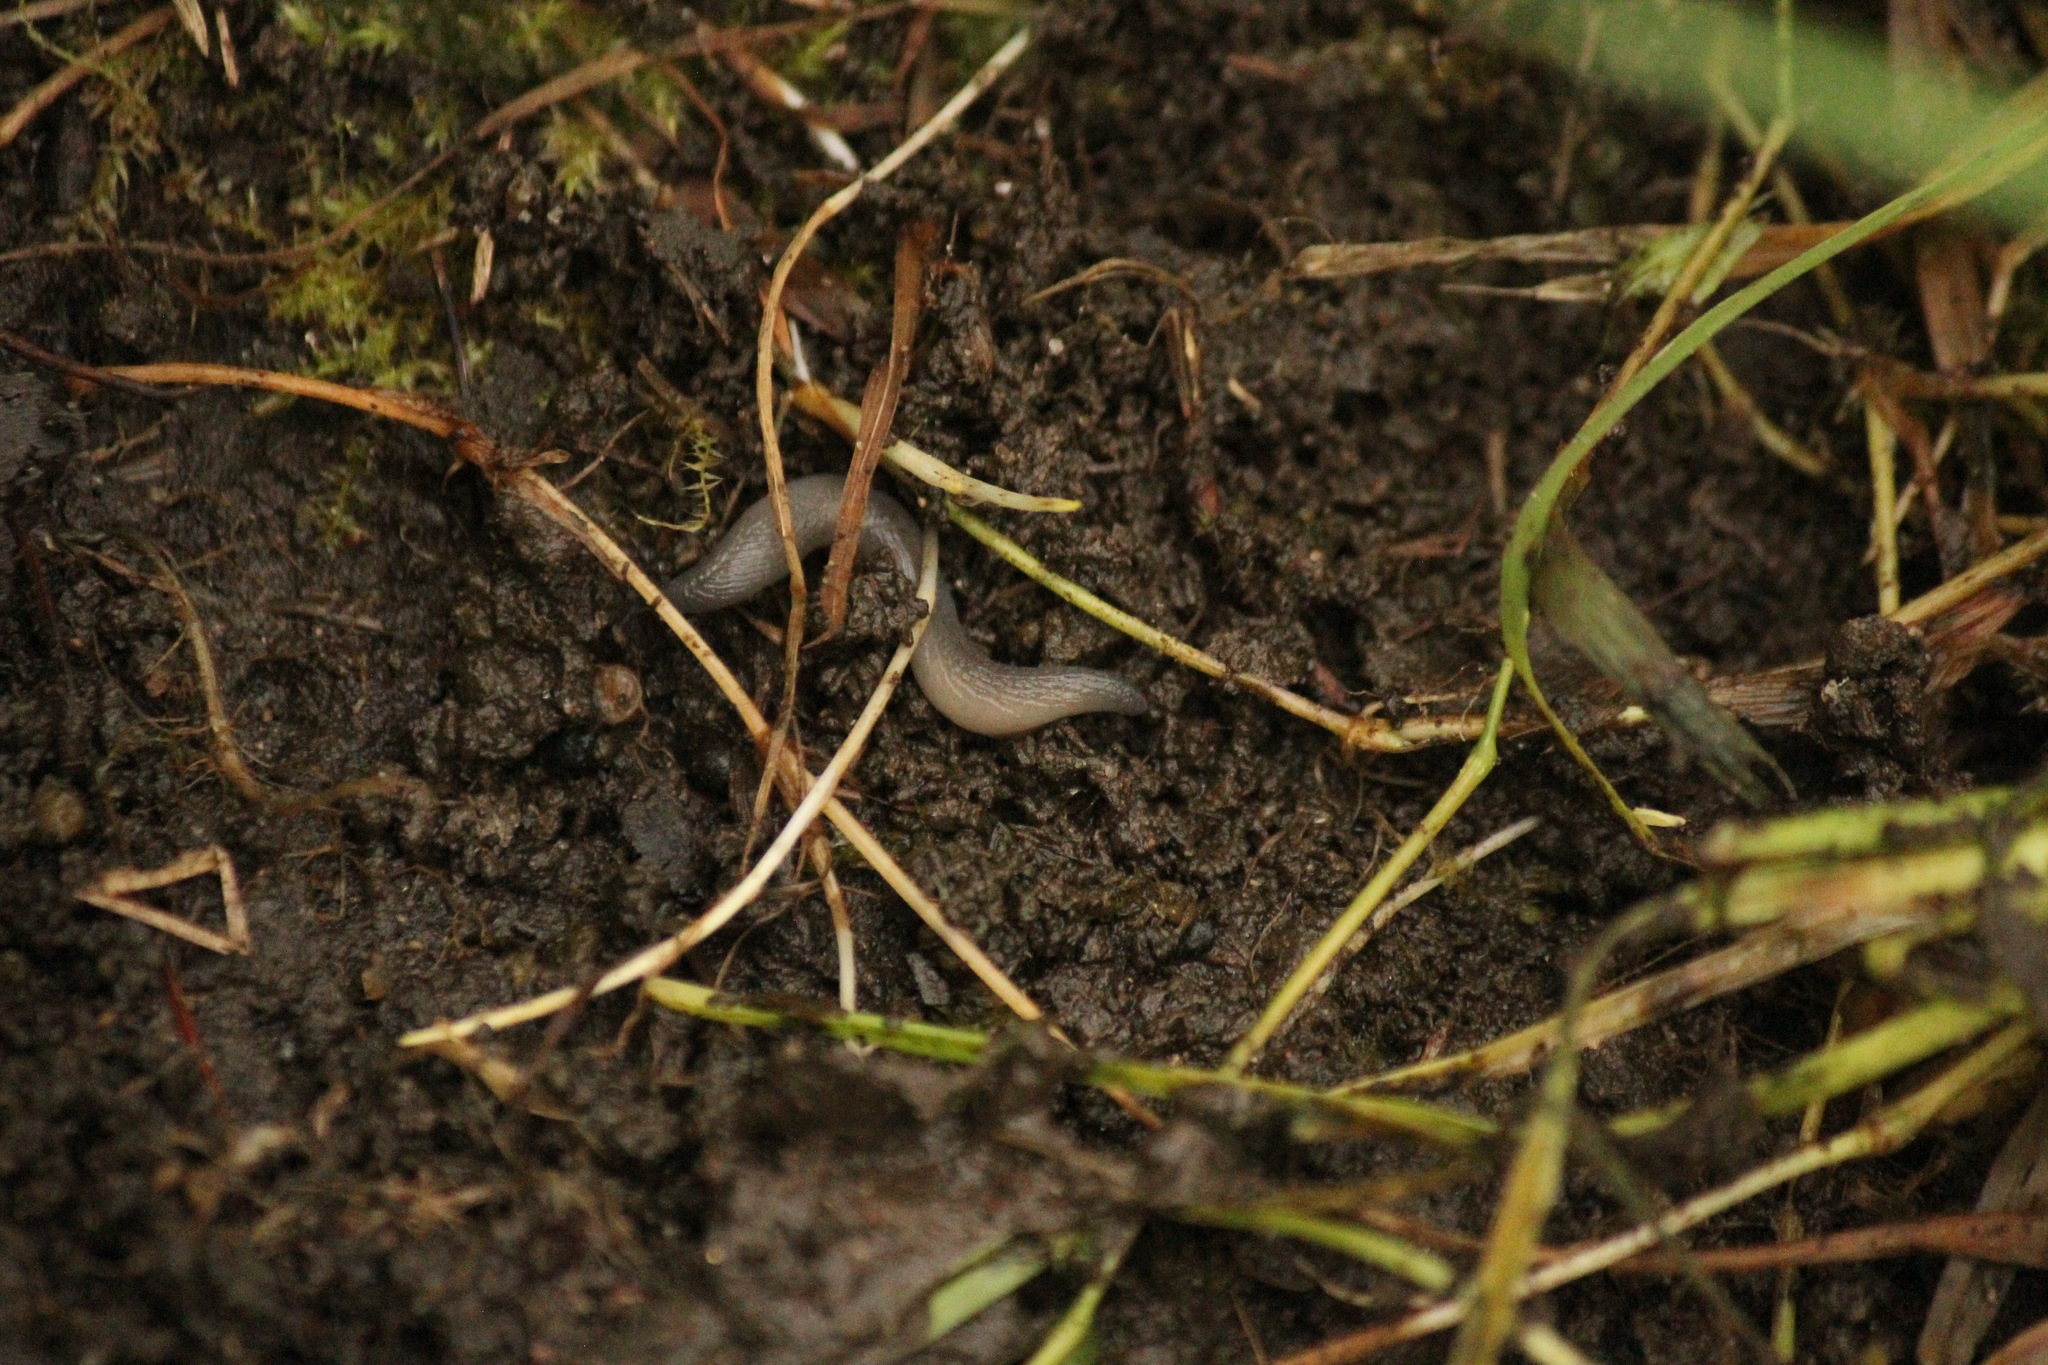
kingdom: Animalia
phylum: Mollusca
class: Gastropoda
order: Stylommatophora
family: Boettgerillidae
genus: Boettgerilla
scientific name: Boettgerilla pallens
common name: Worm slug
